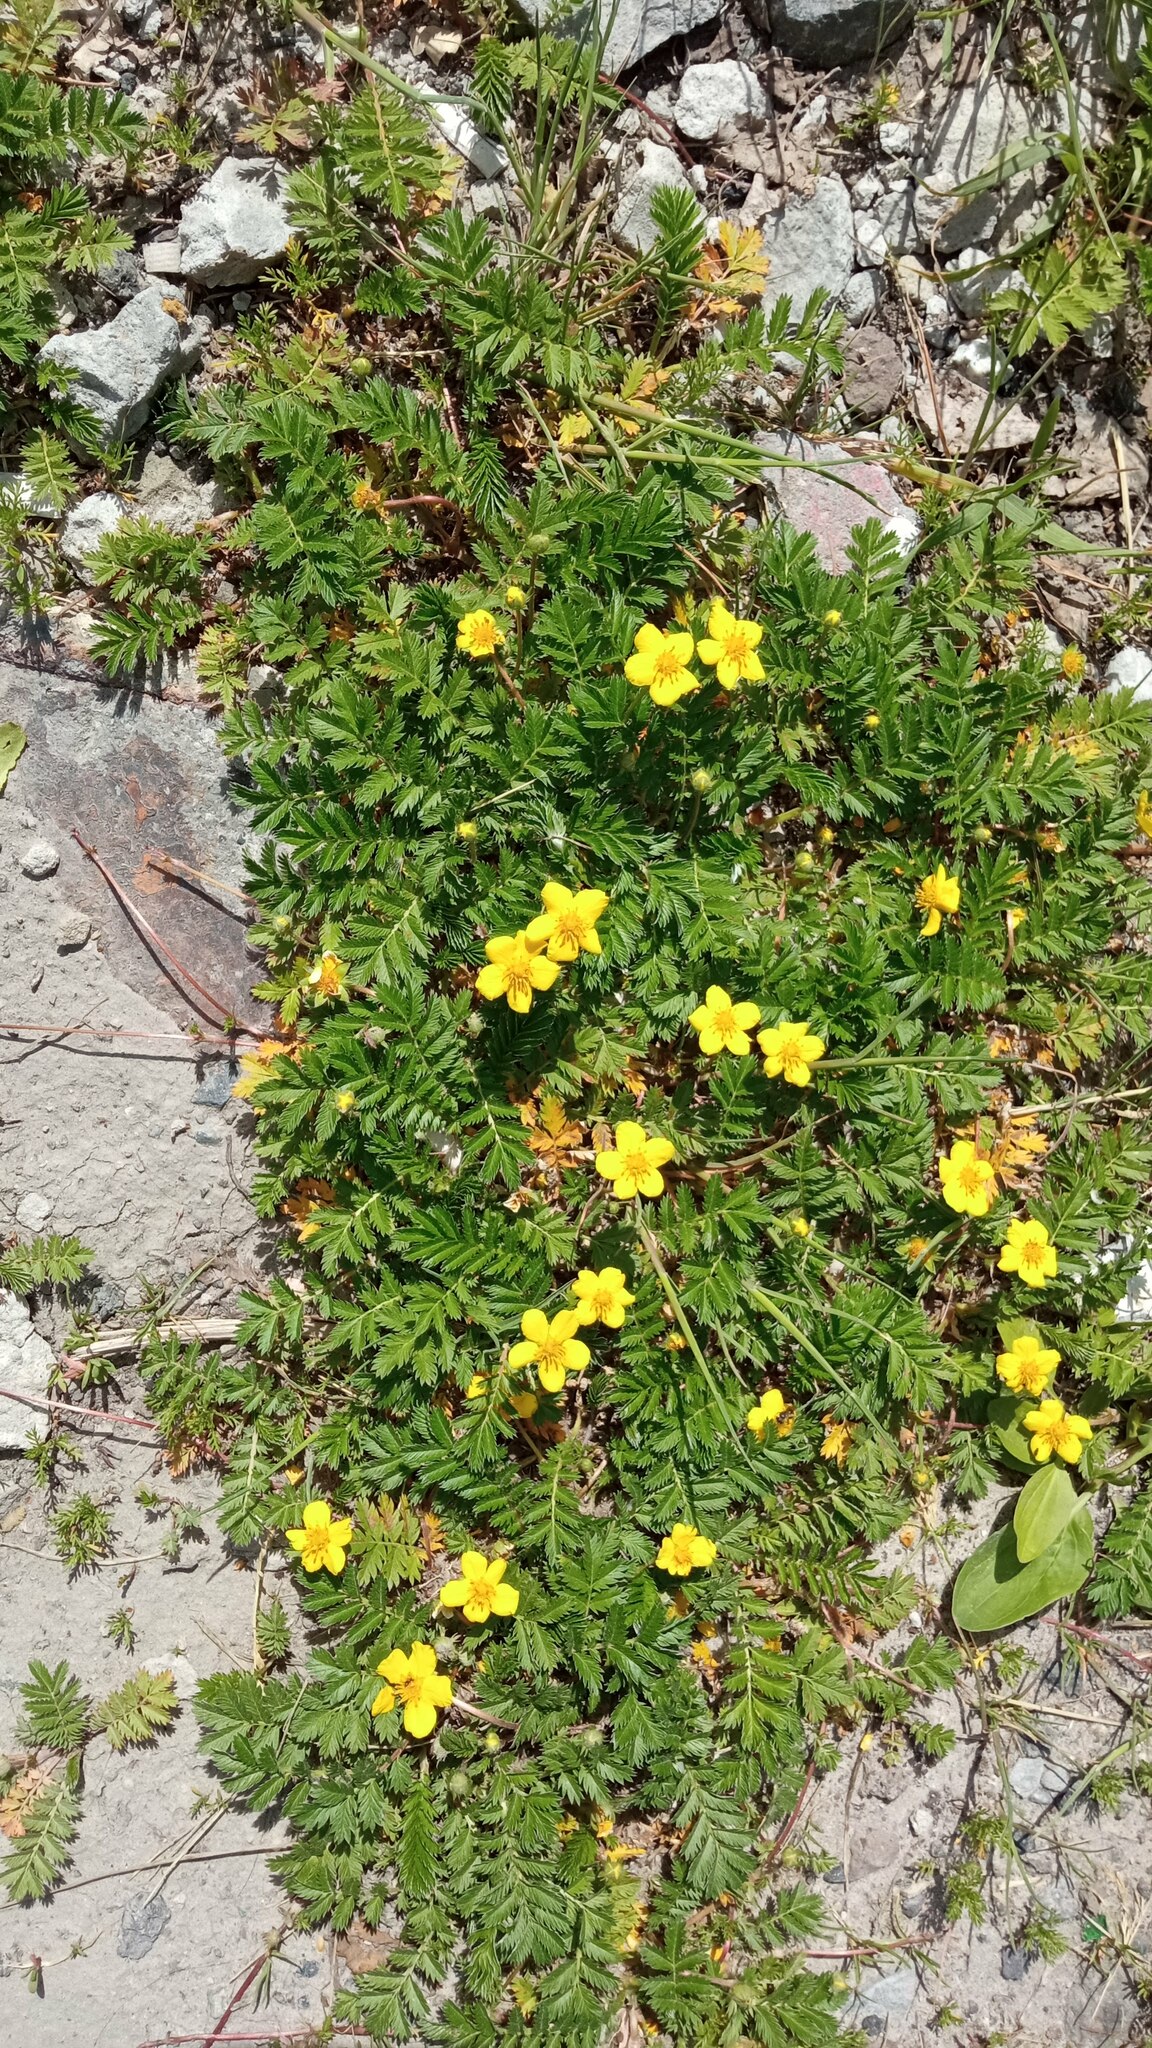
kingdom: Plantae
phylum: Tracheophyta
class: Magnoliopsida
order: Rosales
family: Rosaceae
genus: Argentina
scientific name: Argentina anserina
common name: Common silverweed
